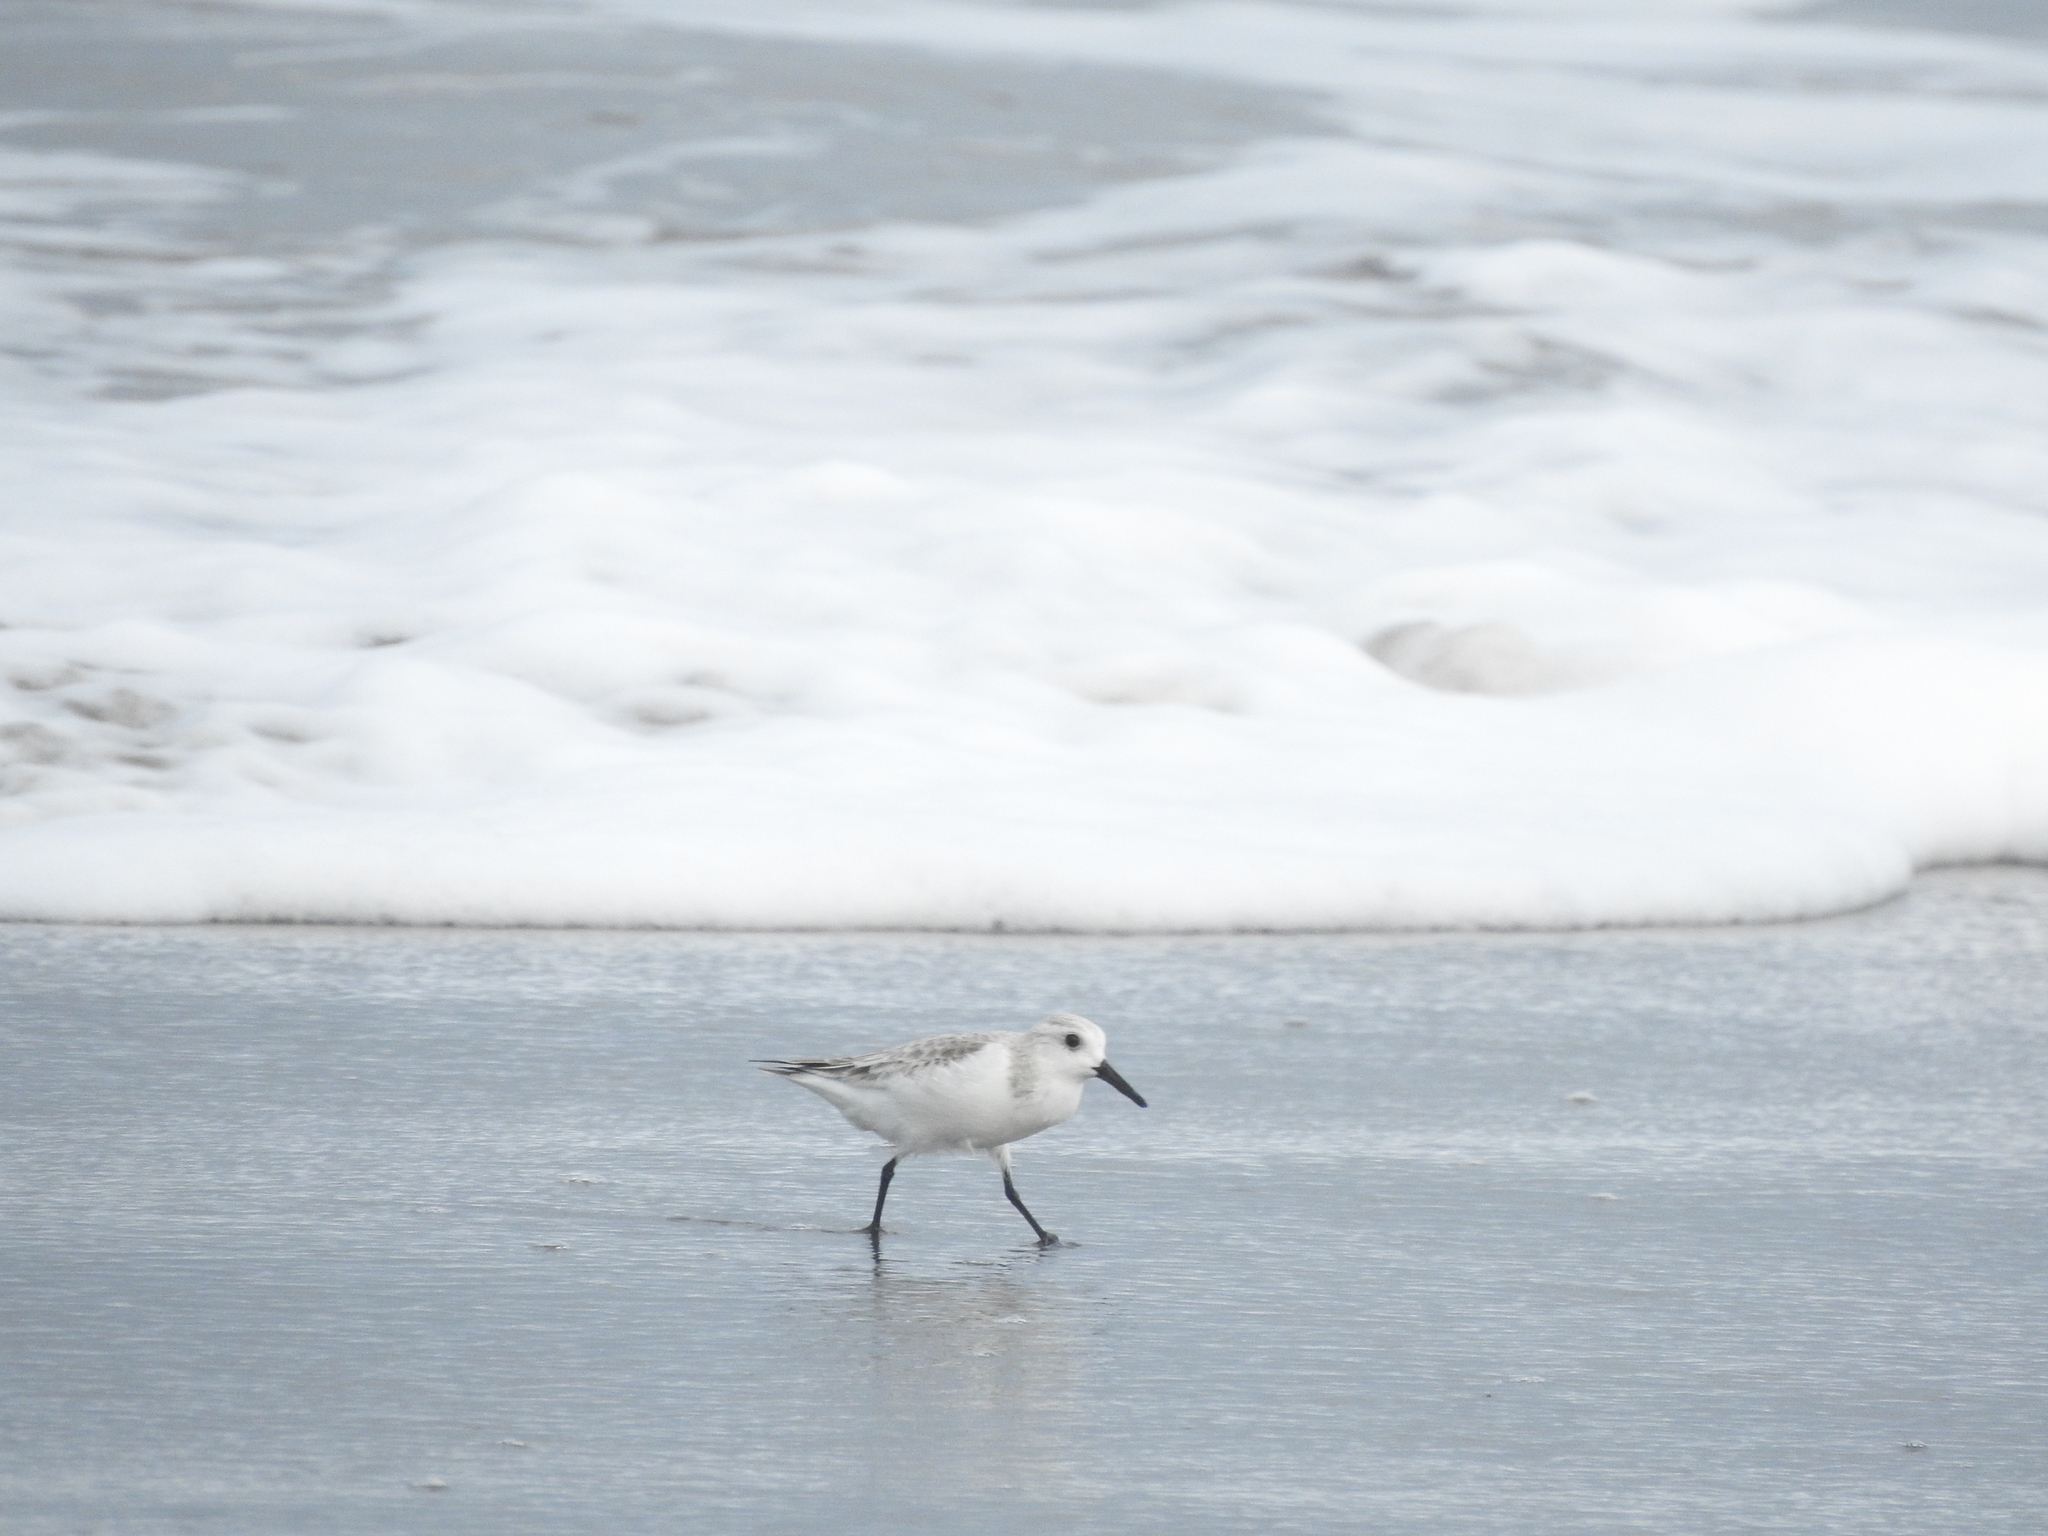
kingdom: Animalia
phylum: Chordata
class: Aves
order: Charadriiformes
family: Scolopacidae
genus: Calidris
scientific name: Calidris alba
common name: Sanderling
